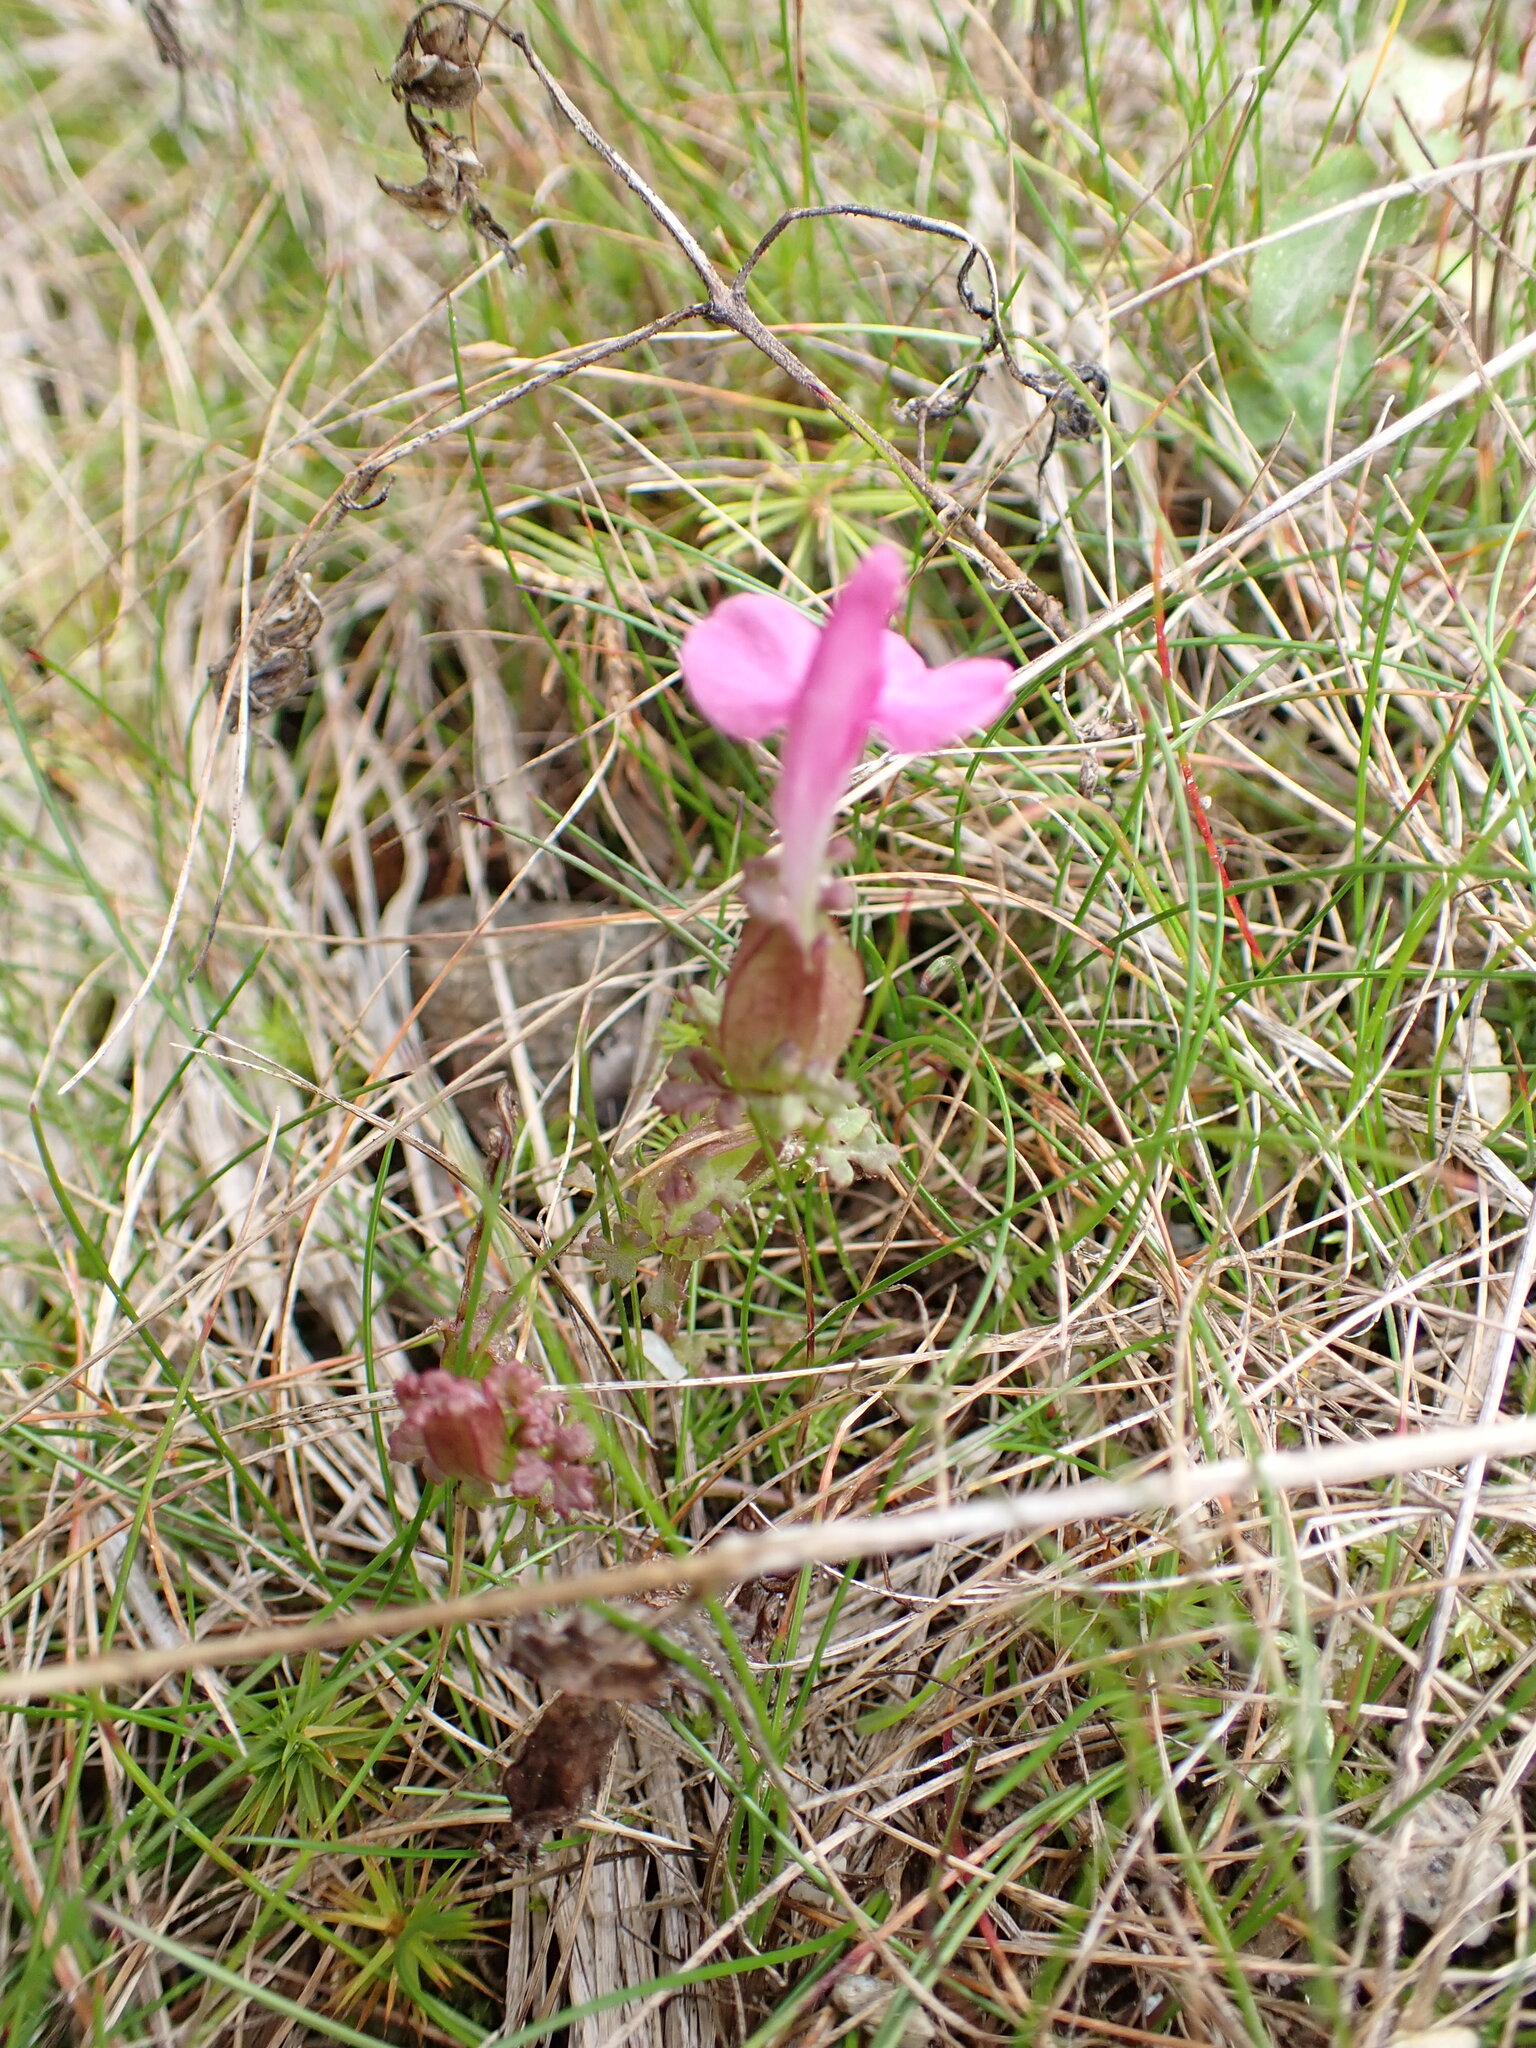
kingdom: Plantae
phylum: Tracheophyta
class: Magnoliopsida
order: Lamiales
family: Orobanchaceae
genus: Pedicularis
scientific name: Pedicularis sylvatica
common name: Lousewort
